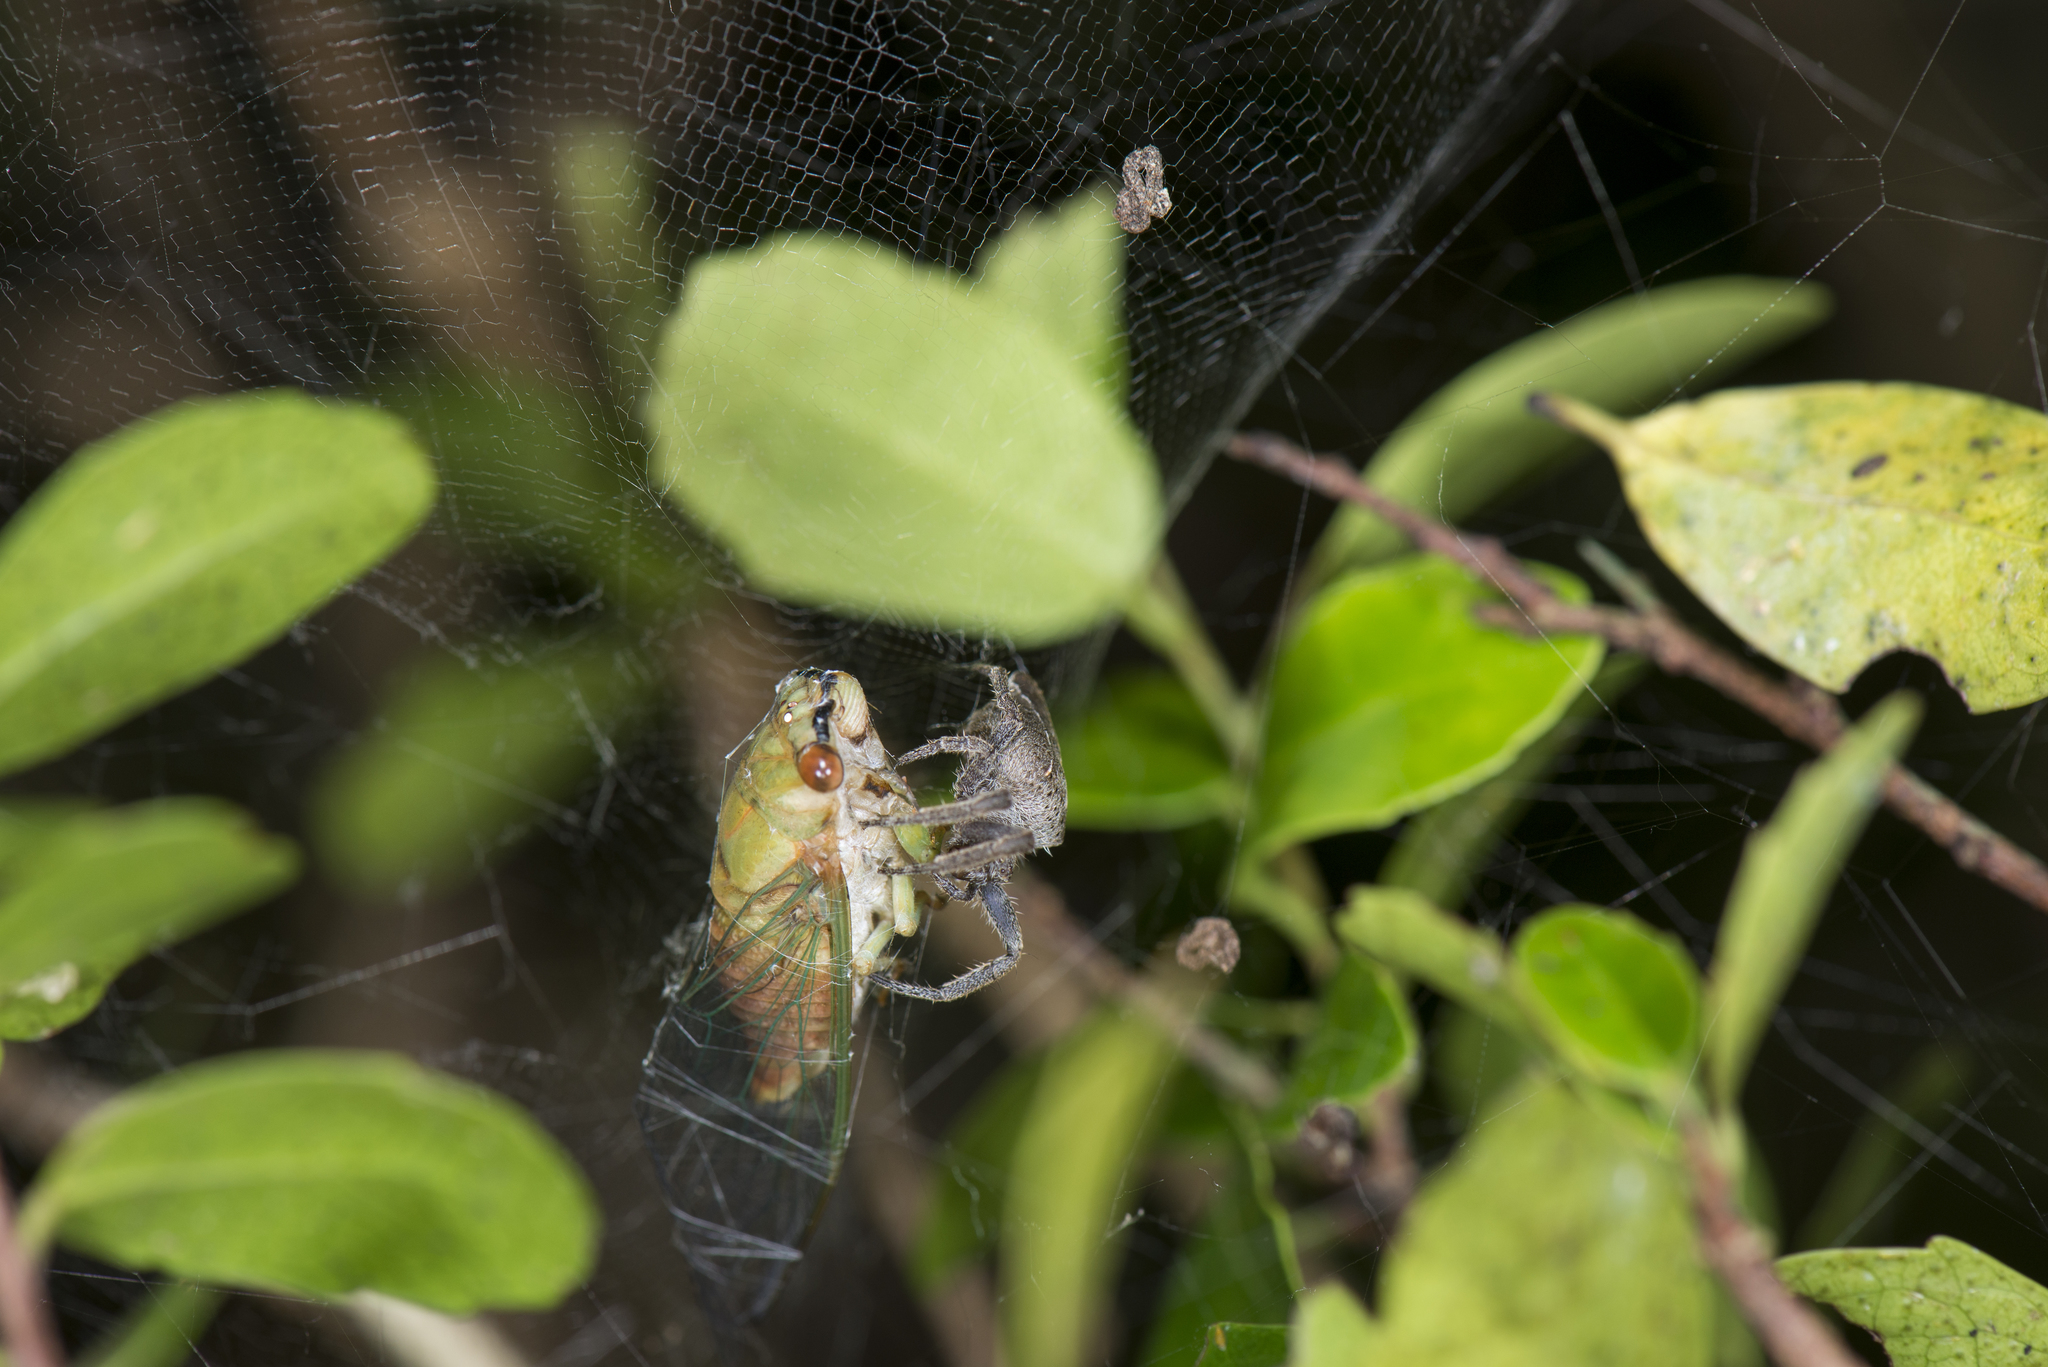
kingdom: Animalia
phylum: Arthropoda
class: Insecta
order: Hemiptera
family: Cicadidae
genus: Chremistica
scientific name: Chremistica ochracea
